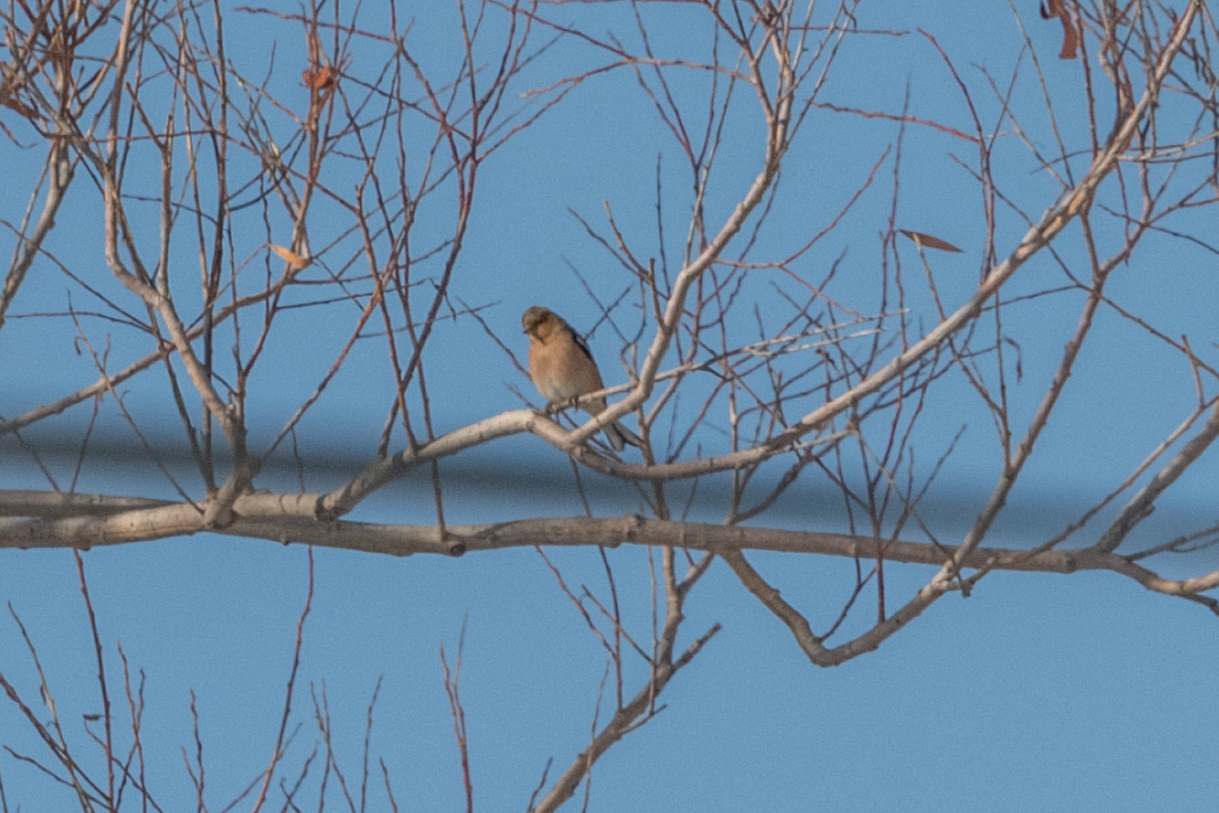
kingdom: Animalia
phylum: Chordata
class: Aves
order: Passeriformes
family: Fringillidae
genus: Fringilla
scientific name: Fringilla coelebs
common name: Common chaffinch
